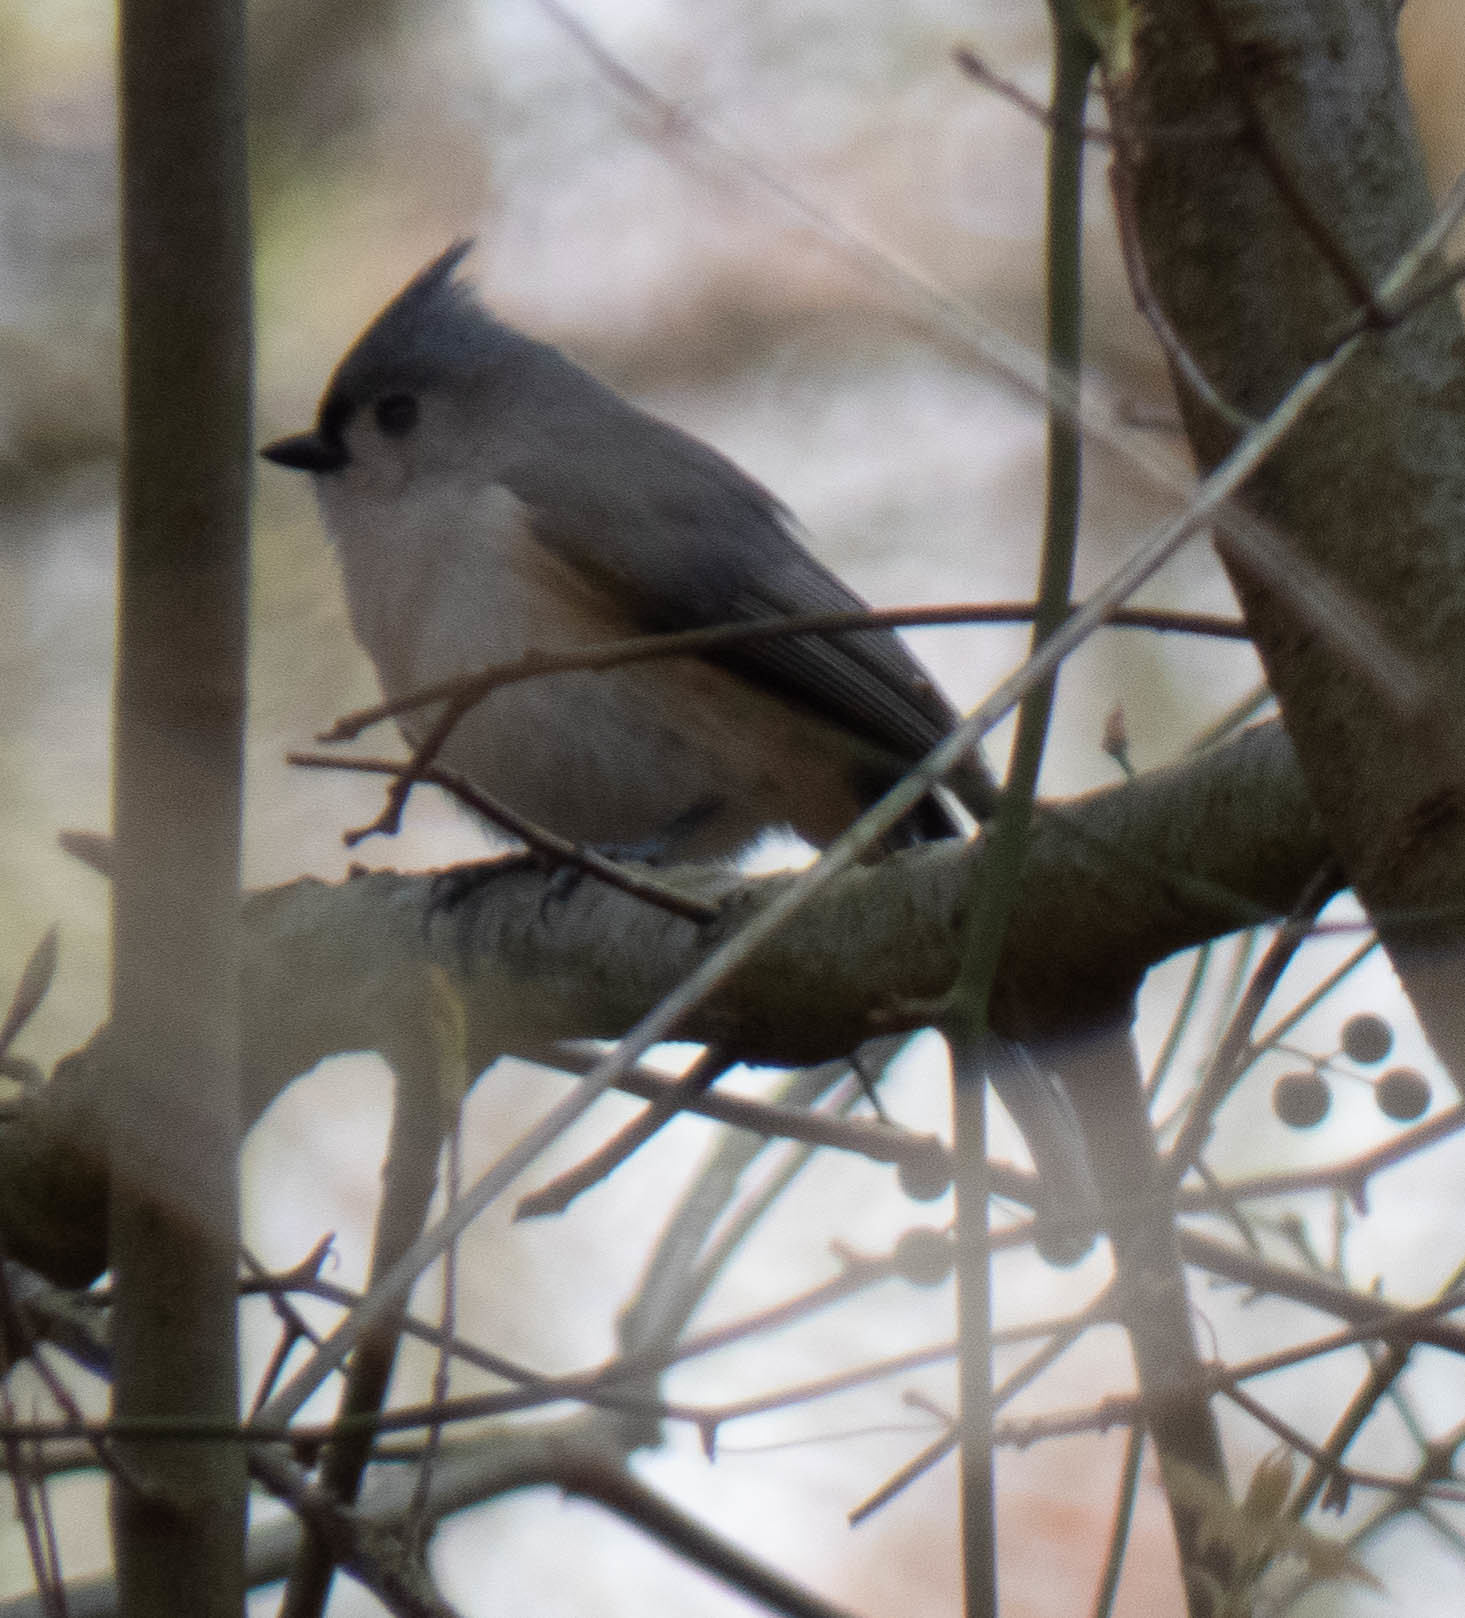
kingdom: Animalia
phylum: Chordata
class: Aves
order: Passeriformes
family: Paridae
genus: Baeolophus
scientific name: Baeolophus bicolor
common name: Tufted titmouse
